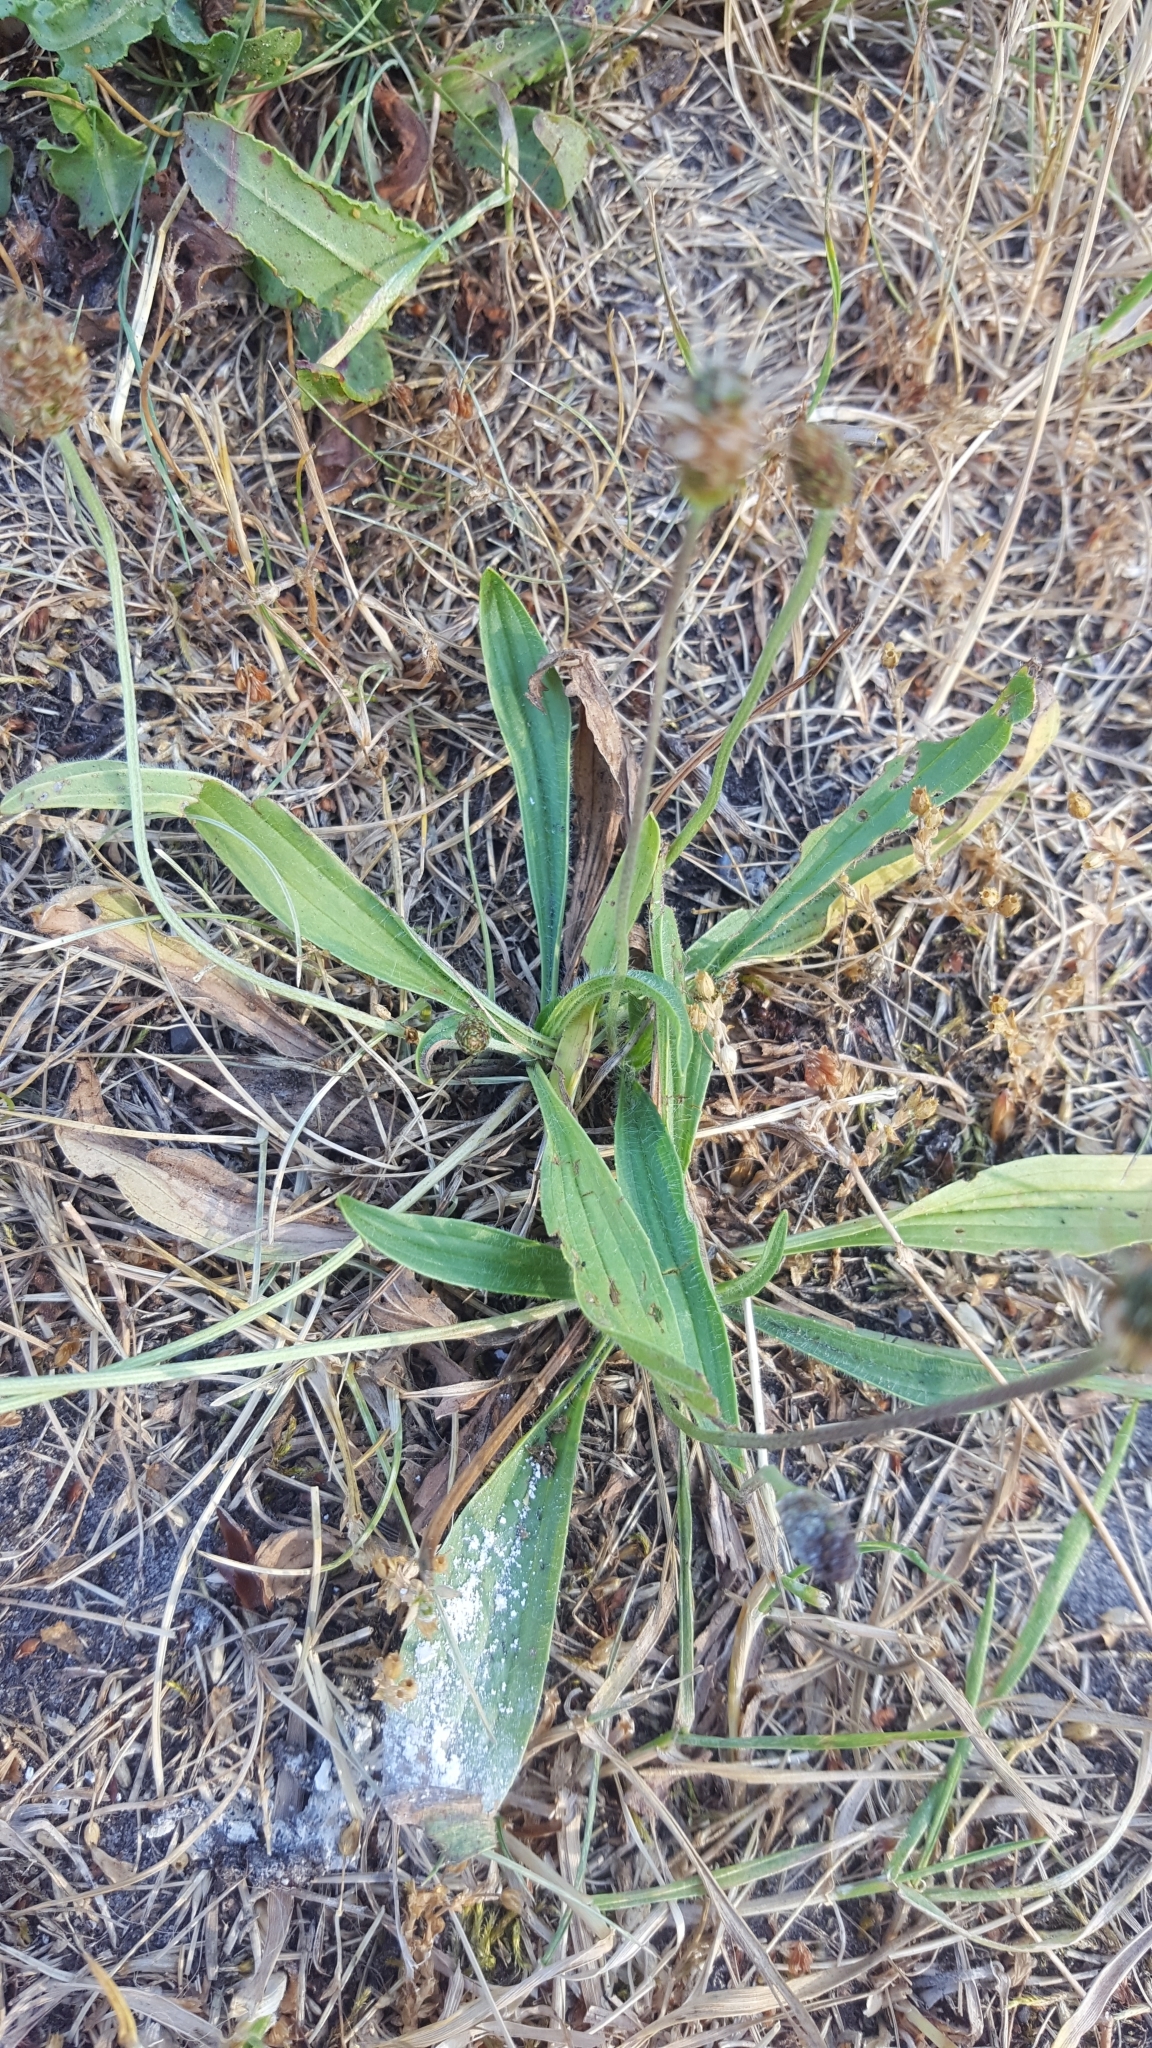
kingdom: Plantae
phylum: Tracheophyta
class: Magnoliopsida
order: Lamiales
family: Plantaginaceae
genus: Plantago
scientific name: Plantago lanceolata
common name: Ribwort plantain
